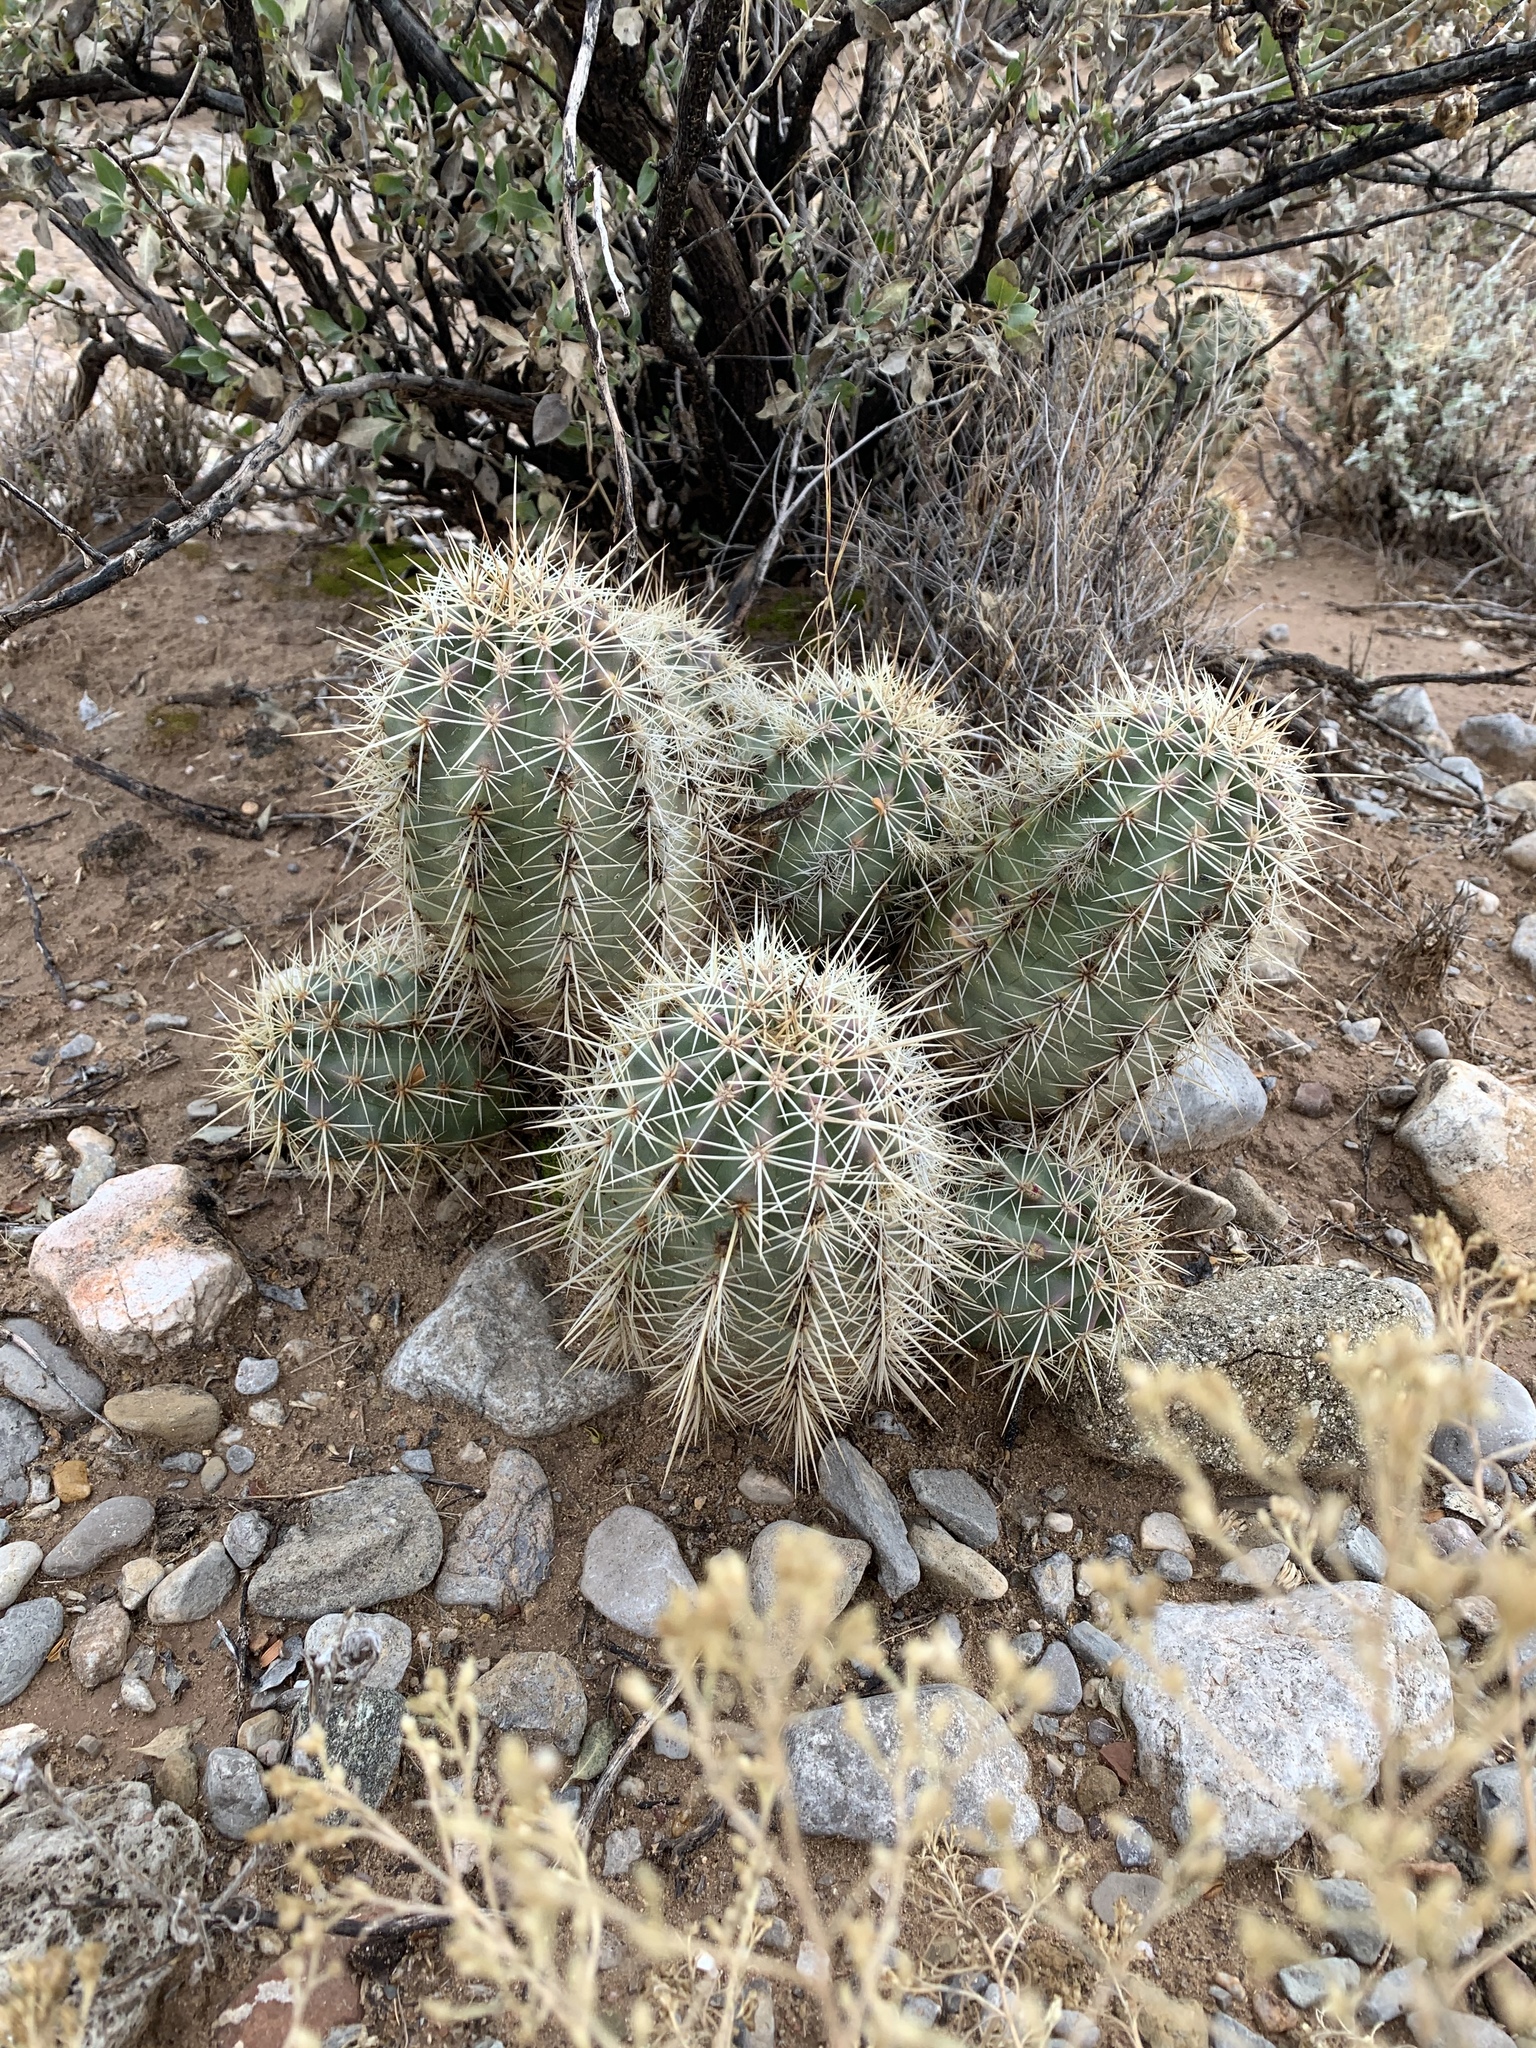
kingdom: Plantae
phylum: Tracheophyta
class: Magnoliopsida
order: Caryophyllales
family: Cactaceae
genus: Echinocereus
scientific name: Echinocereus coccineus
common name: Scarlet hedgehog cactus
